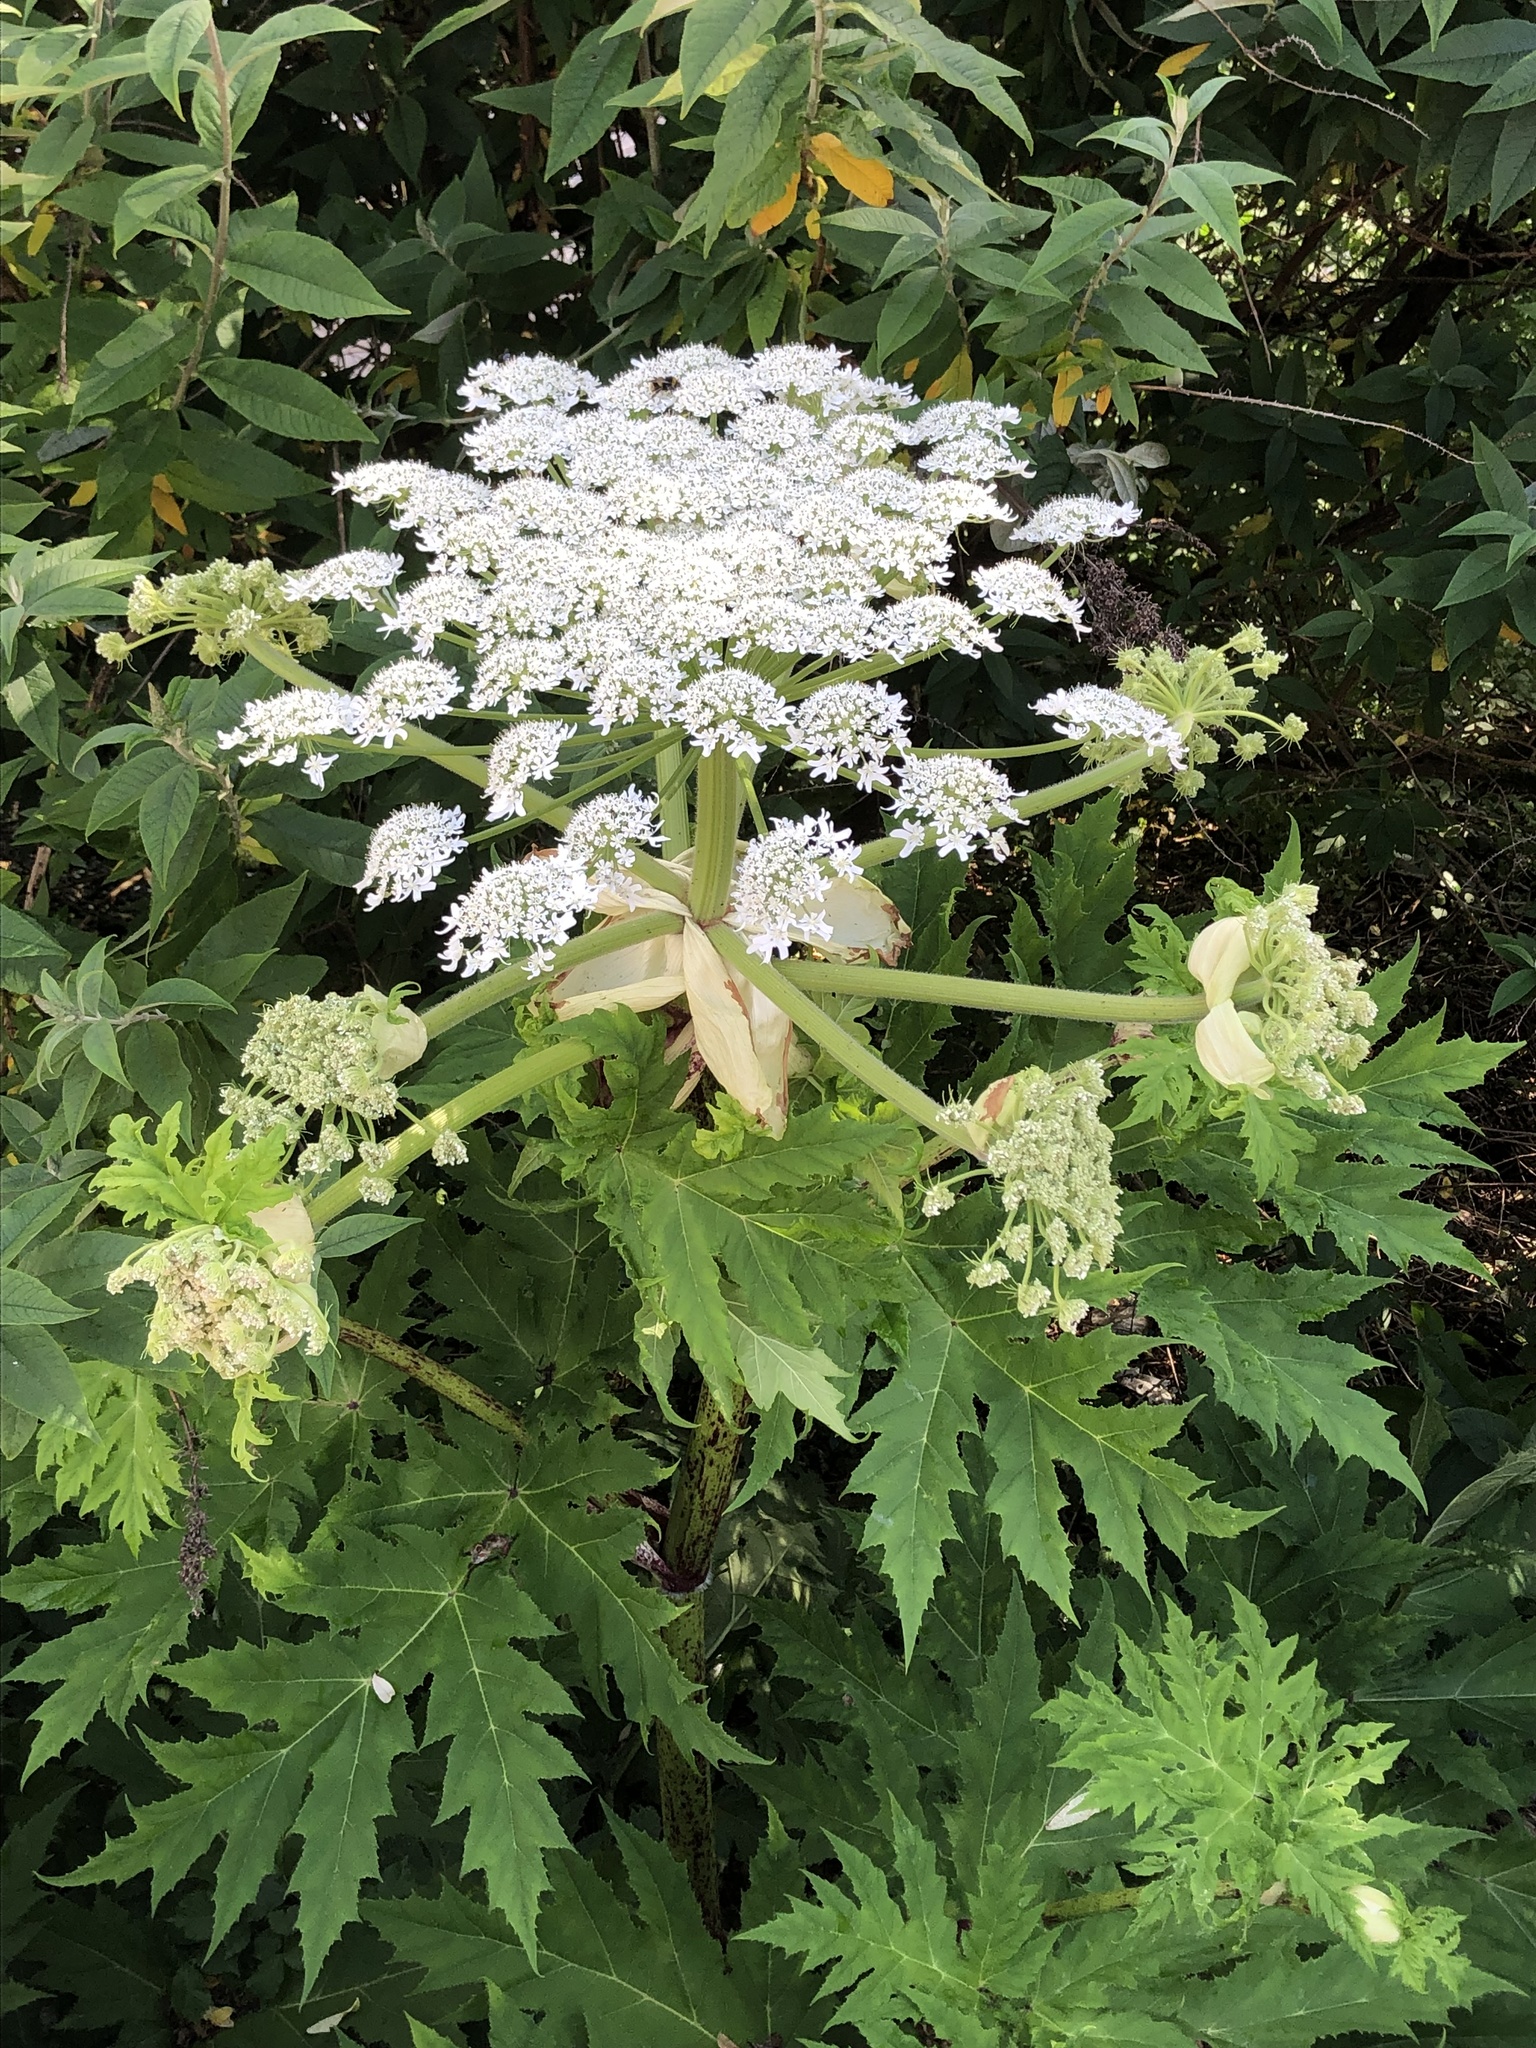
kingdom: Plantae
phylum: Tracheophyta
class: Magnoliopsida
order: Apiales
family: Apiaceae
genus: Heracleum
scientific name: Heracleum mantegazzianum
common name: Giant hogweed
